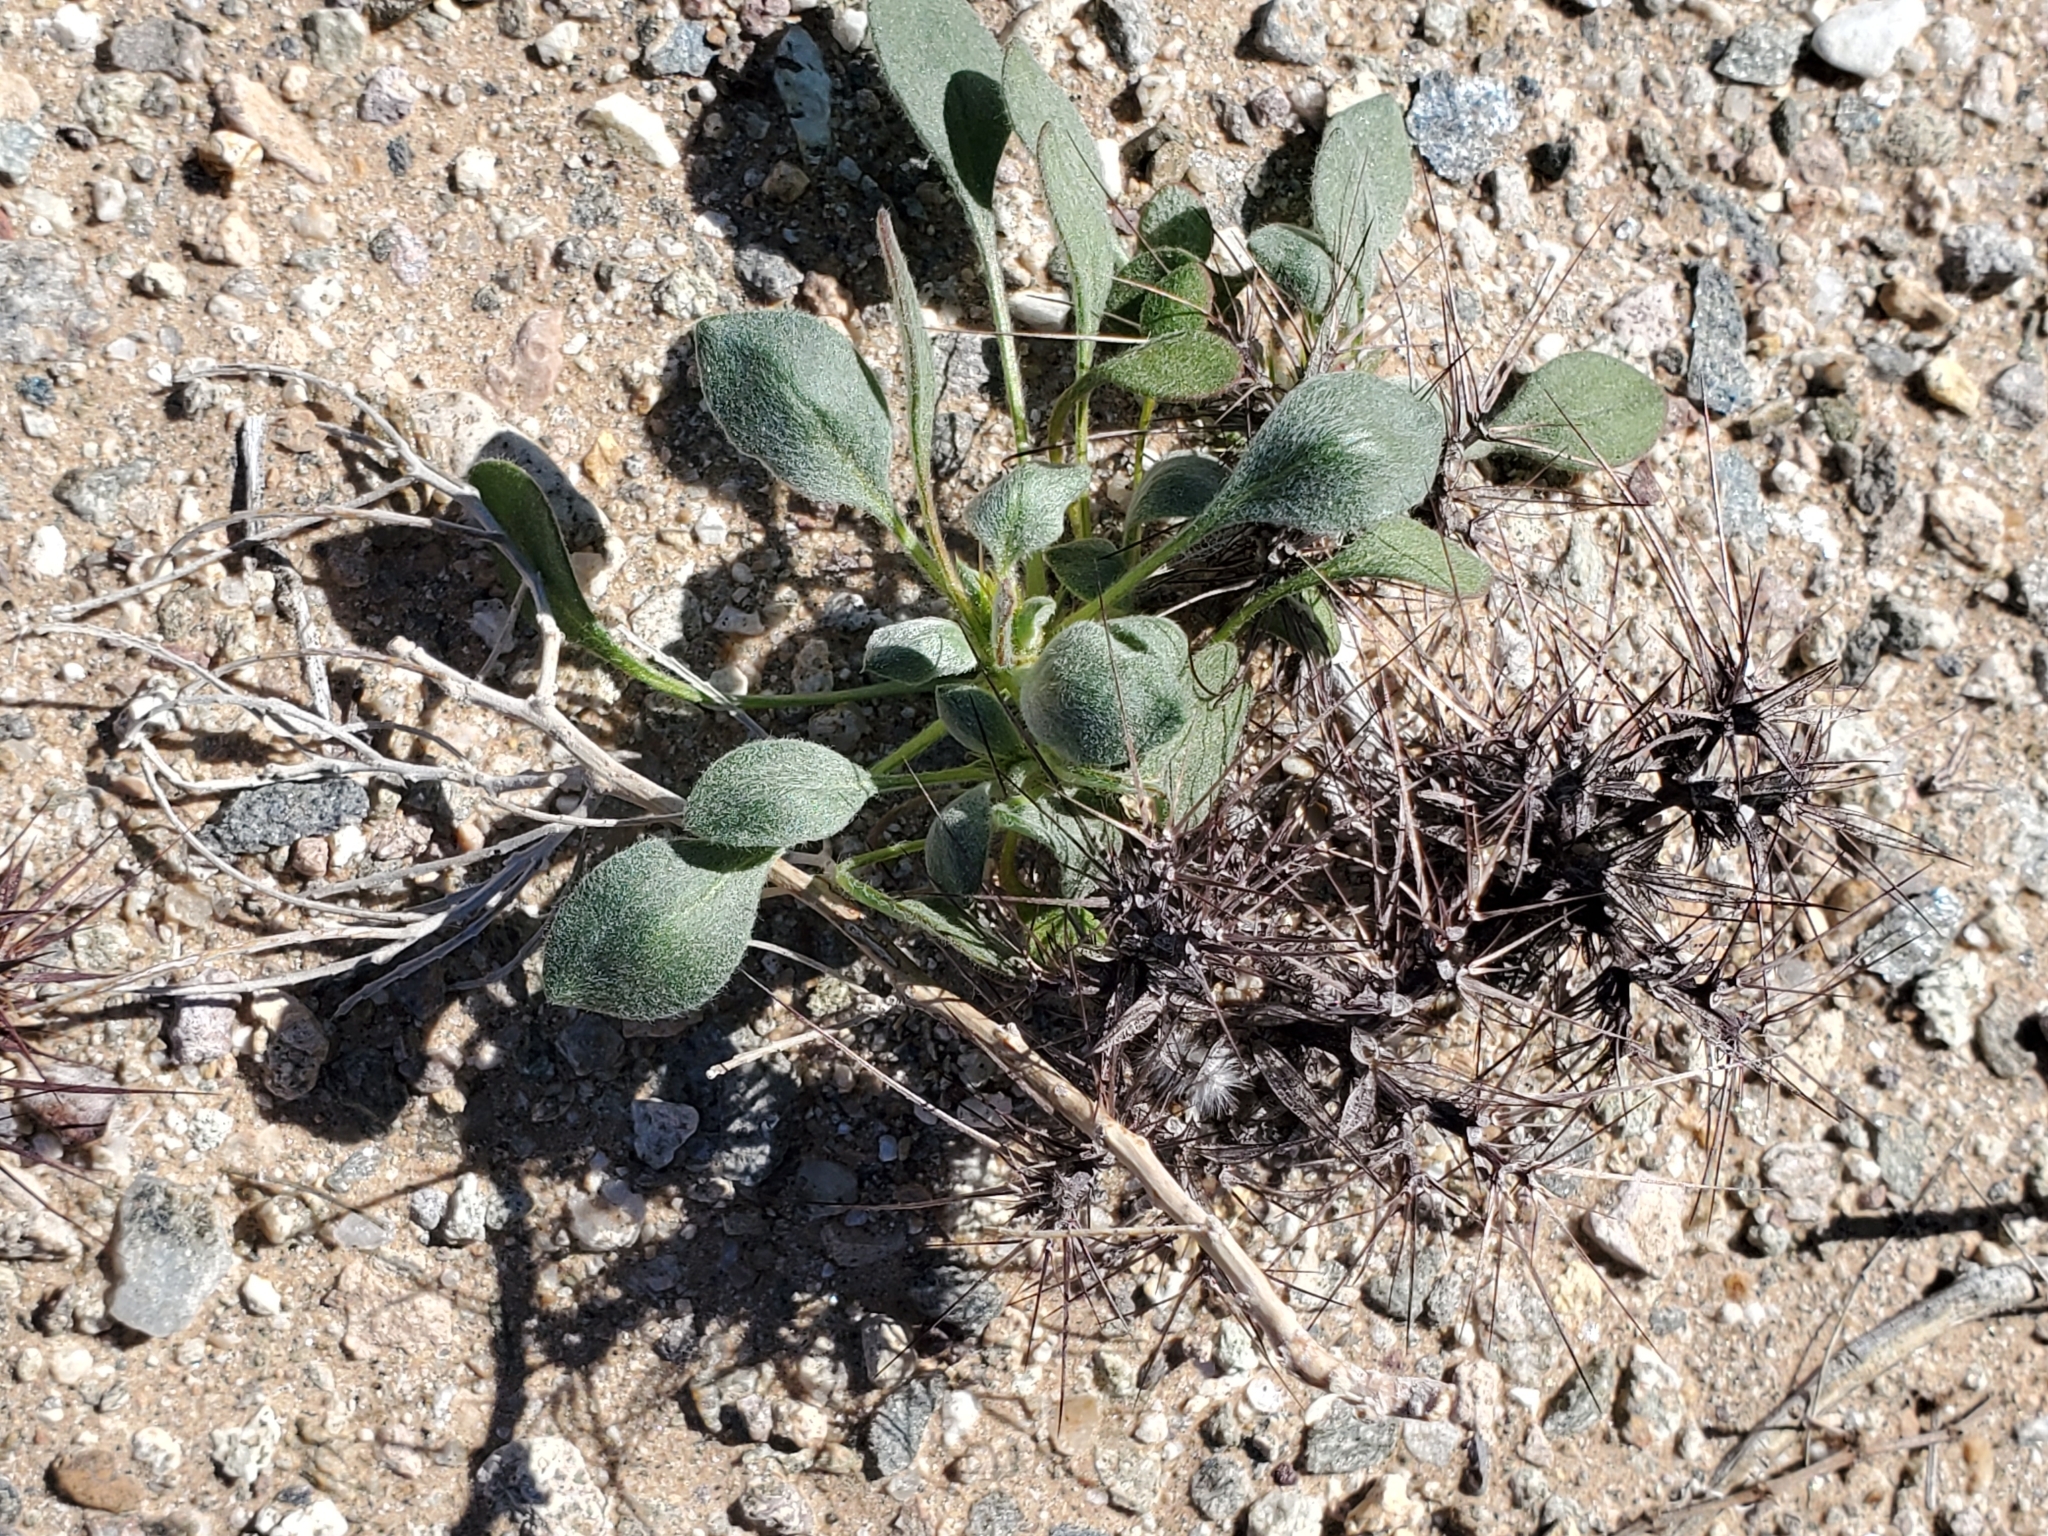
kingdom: Plantae
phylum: Tracheophyta
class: Magnoliopsida
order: Caryophyllales
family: Polygonaceae
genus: Chorizanthe
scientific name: Chorizanthe rigida
